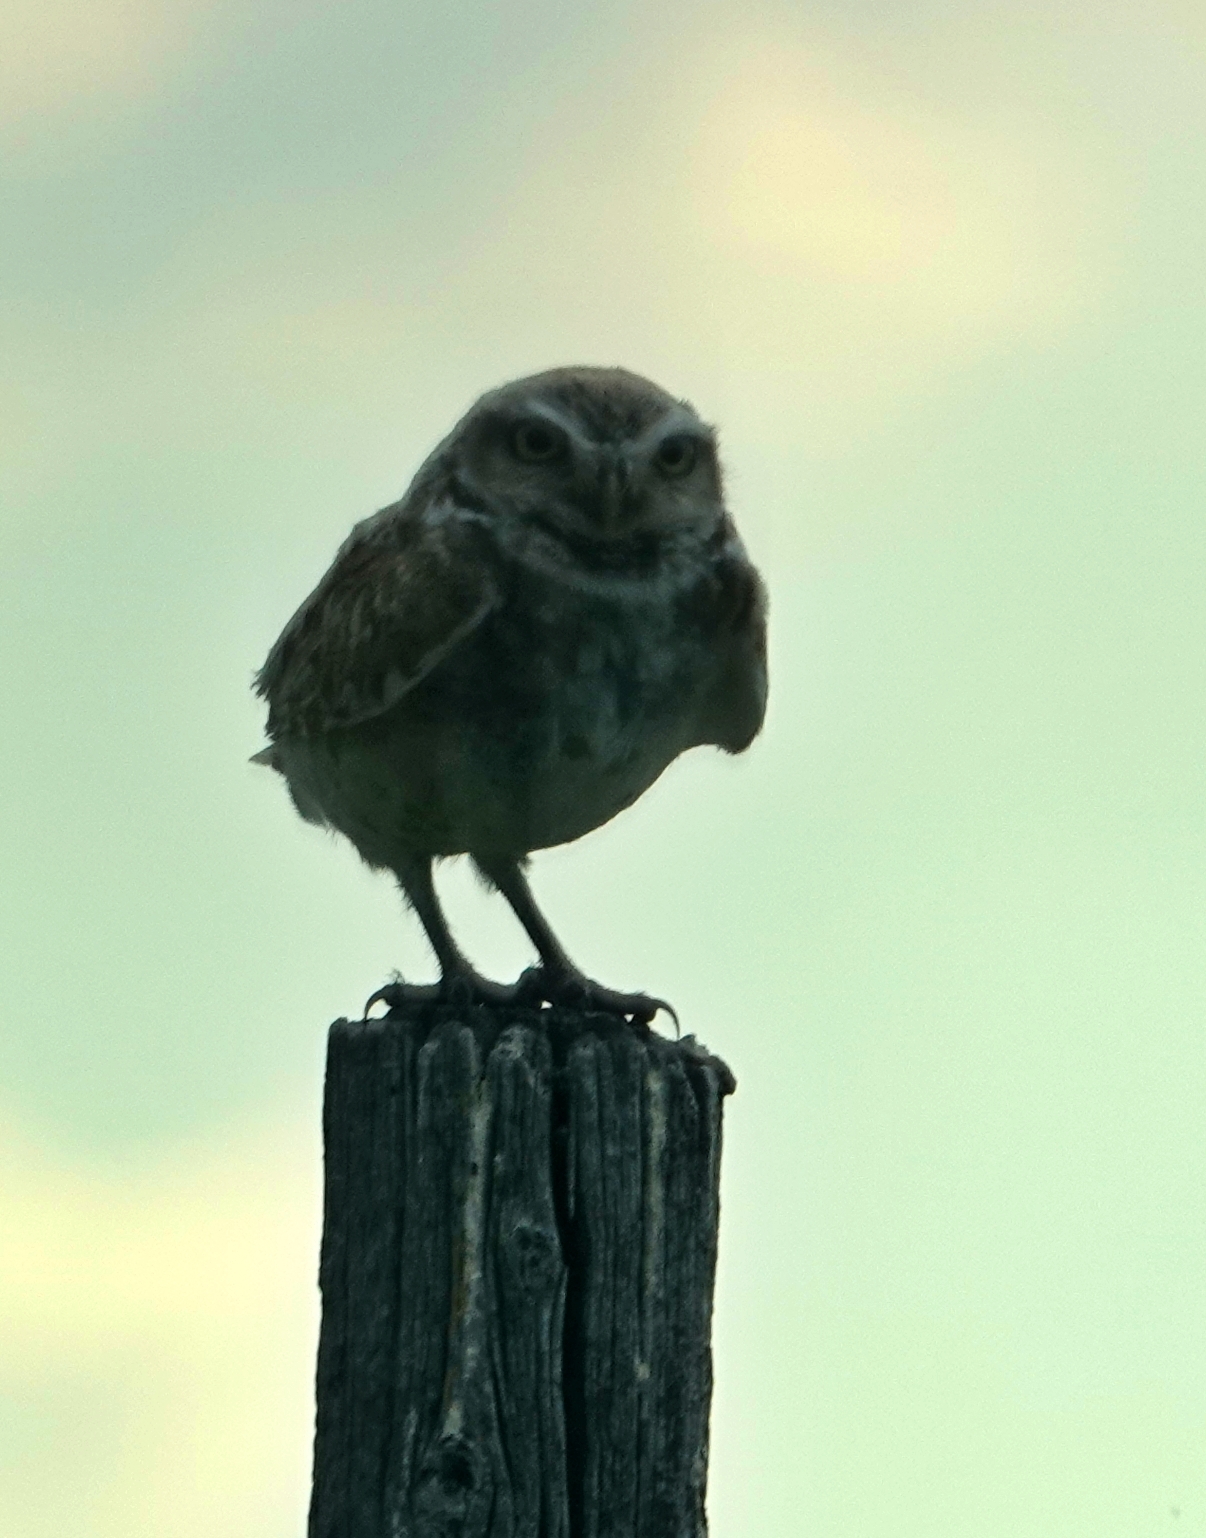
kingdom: Animalia
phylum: Chordata
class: Aves
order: Strigiformes
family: Strigidae
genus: Athene
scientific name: Athene cunicularia
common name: Burrowing owl
